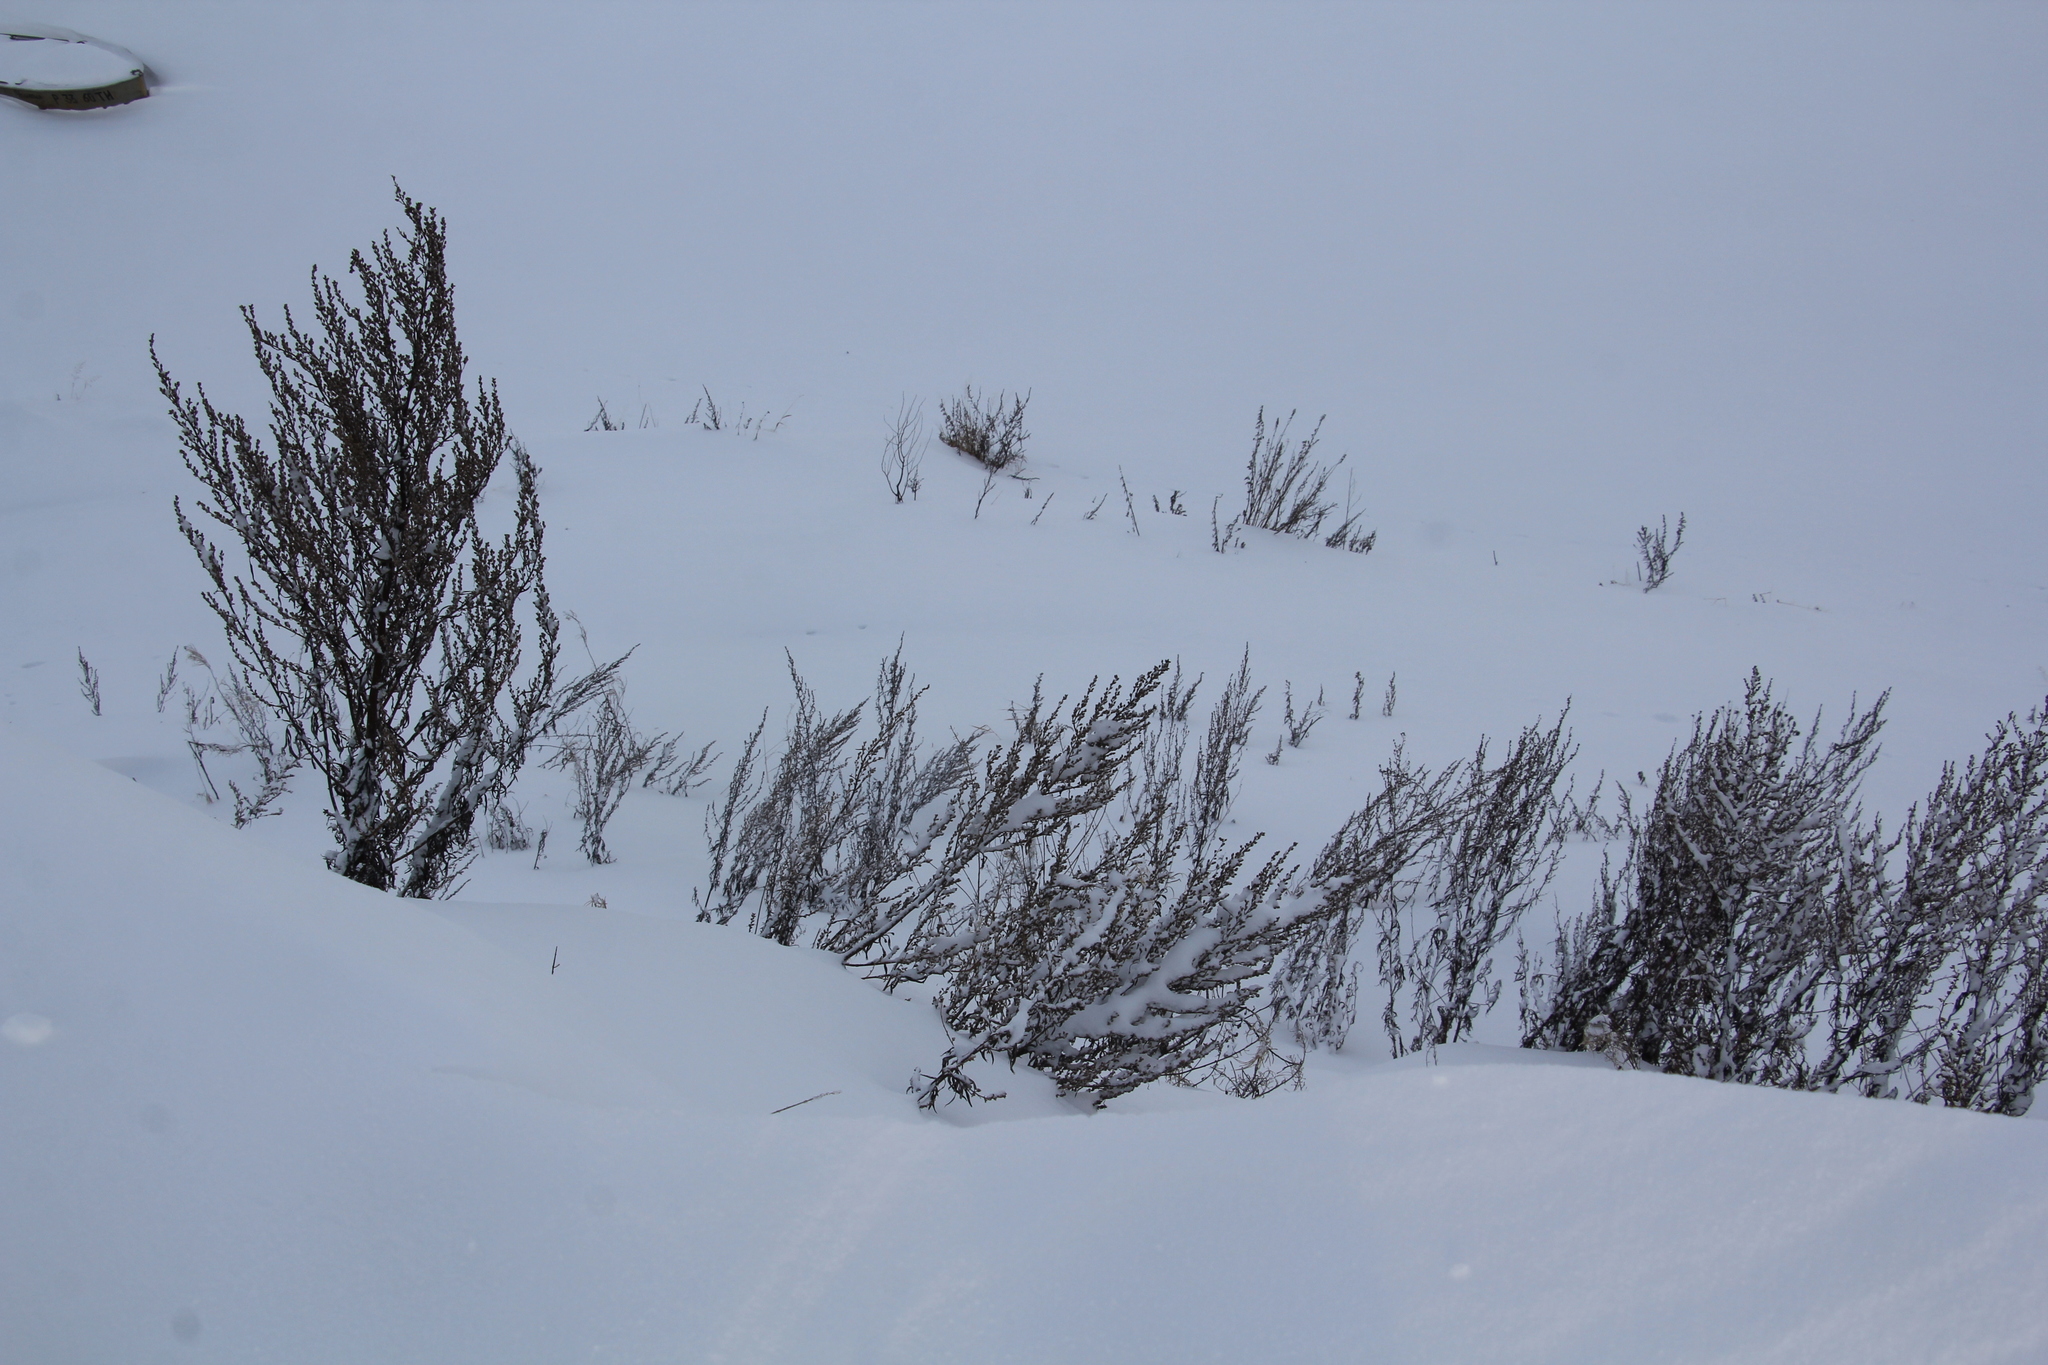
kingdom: Plantae
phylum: Tracheophyta
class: Magnoliopsida
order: Asterales
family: Asteraceae
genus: Artemisia
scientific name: Artemisia vulgaris
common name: Mugwort
